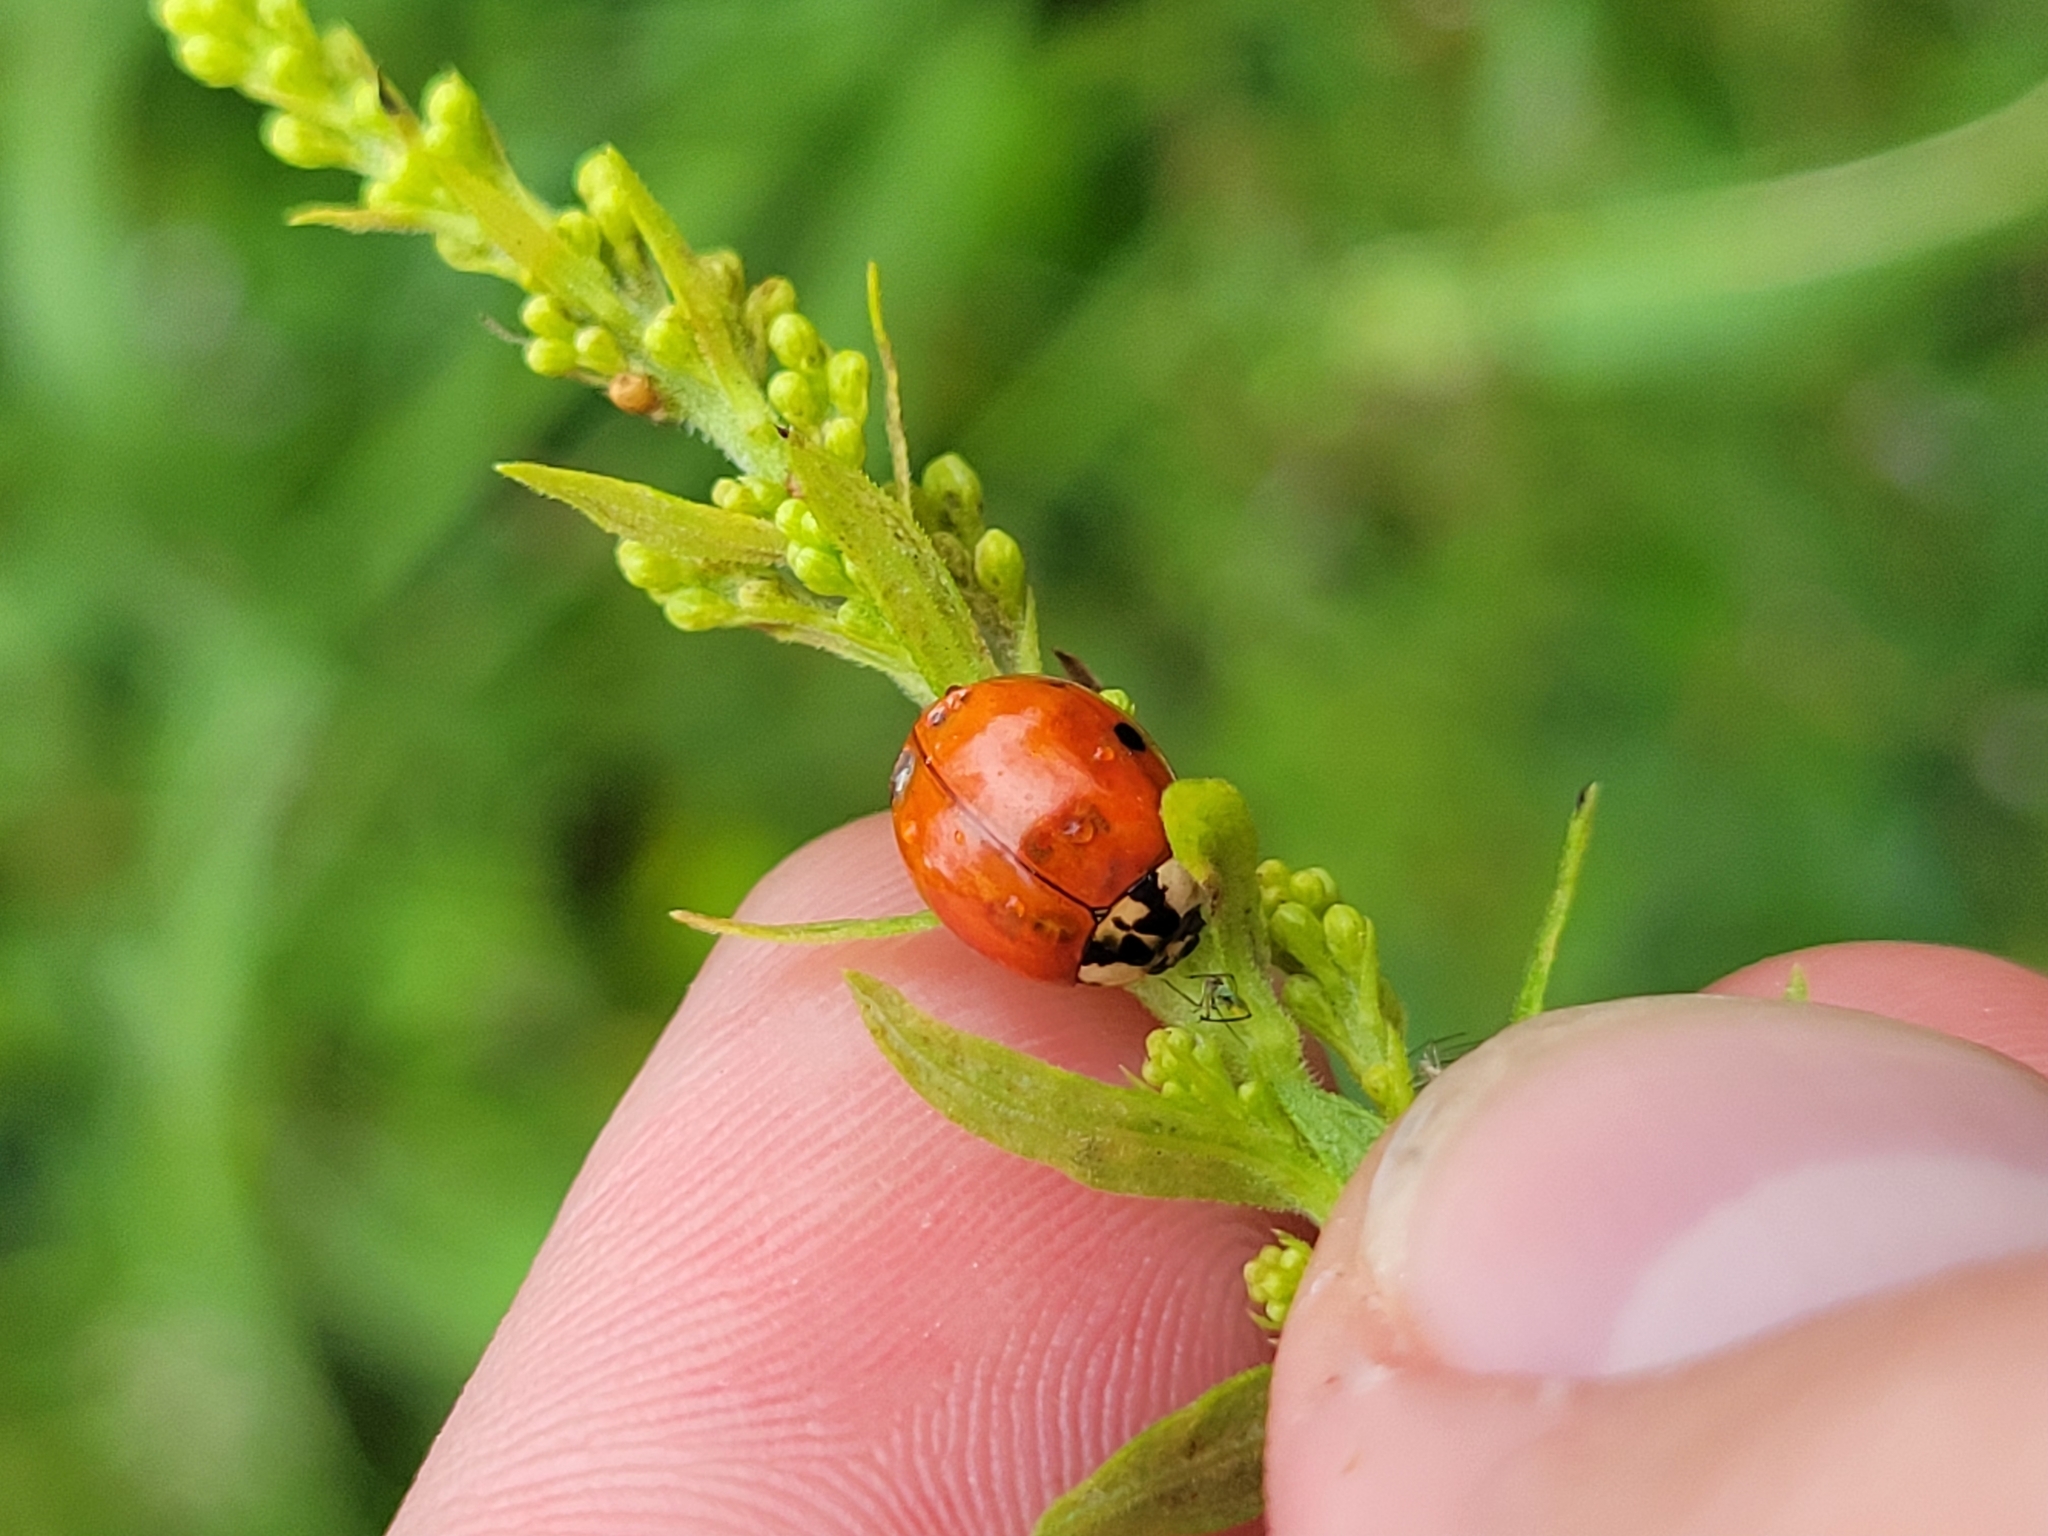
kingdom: Animalia
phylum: Arthropoda
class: Insecta
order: Coleoptera
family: Coccinellidae
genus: Harmonia
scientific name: Harmonia axyridis
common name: Harlequin ladybird
